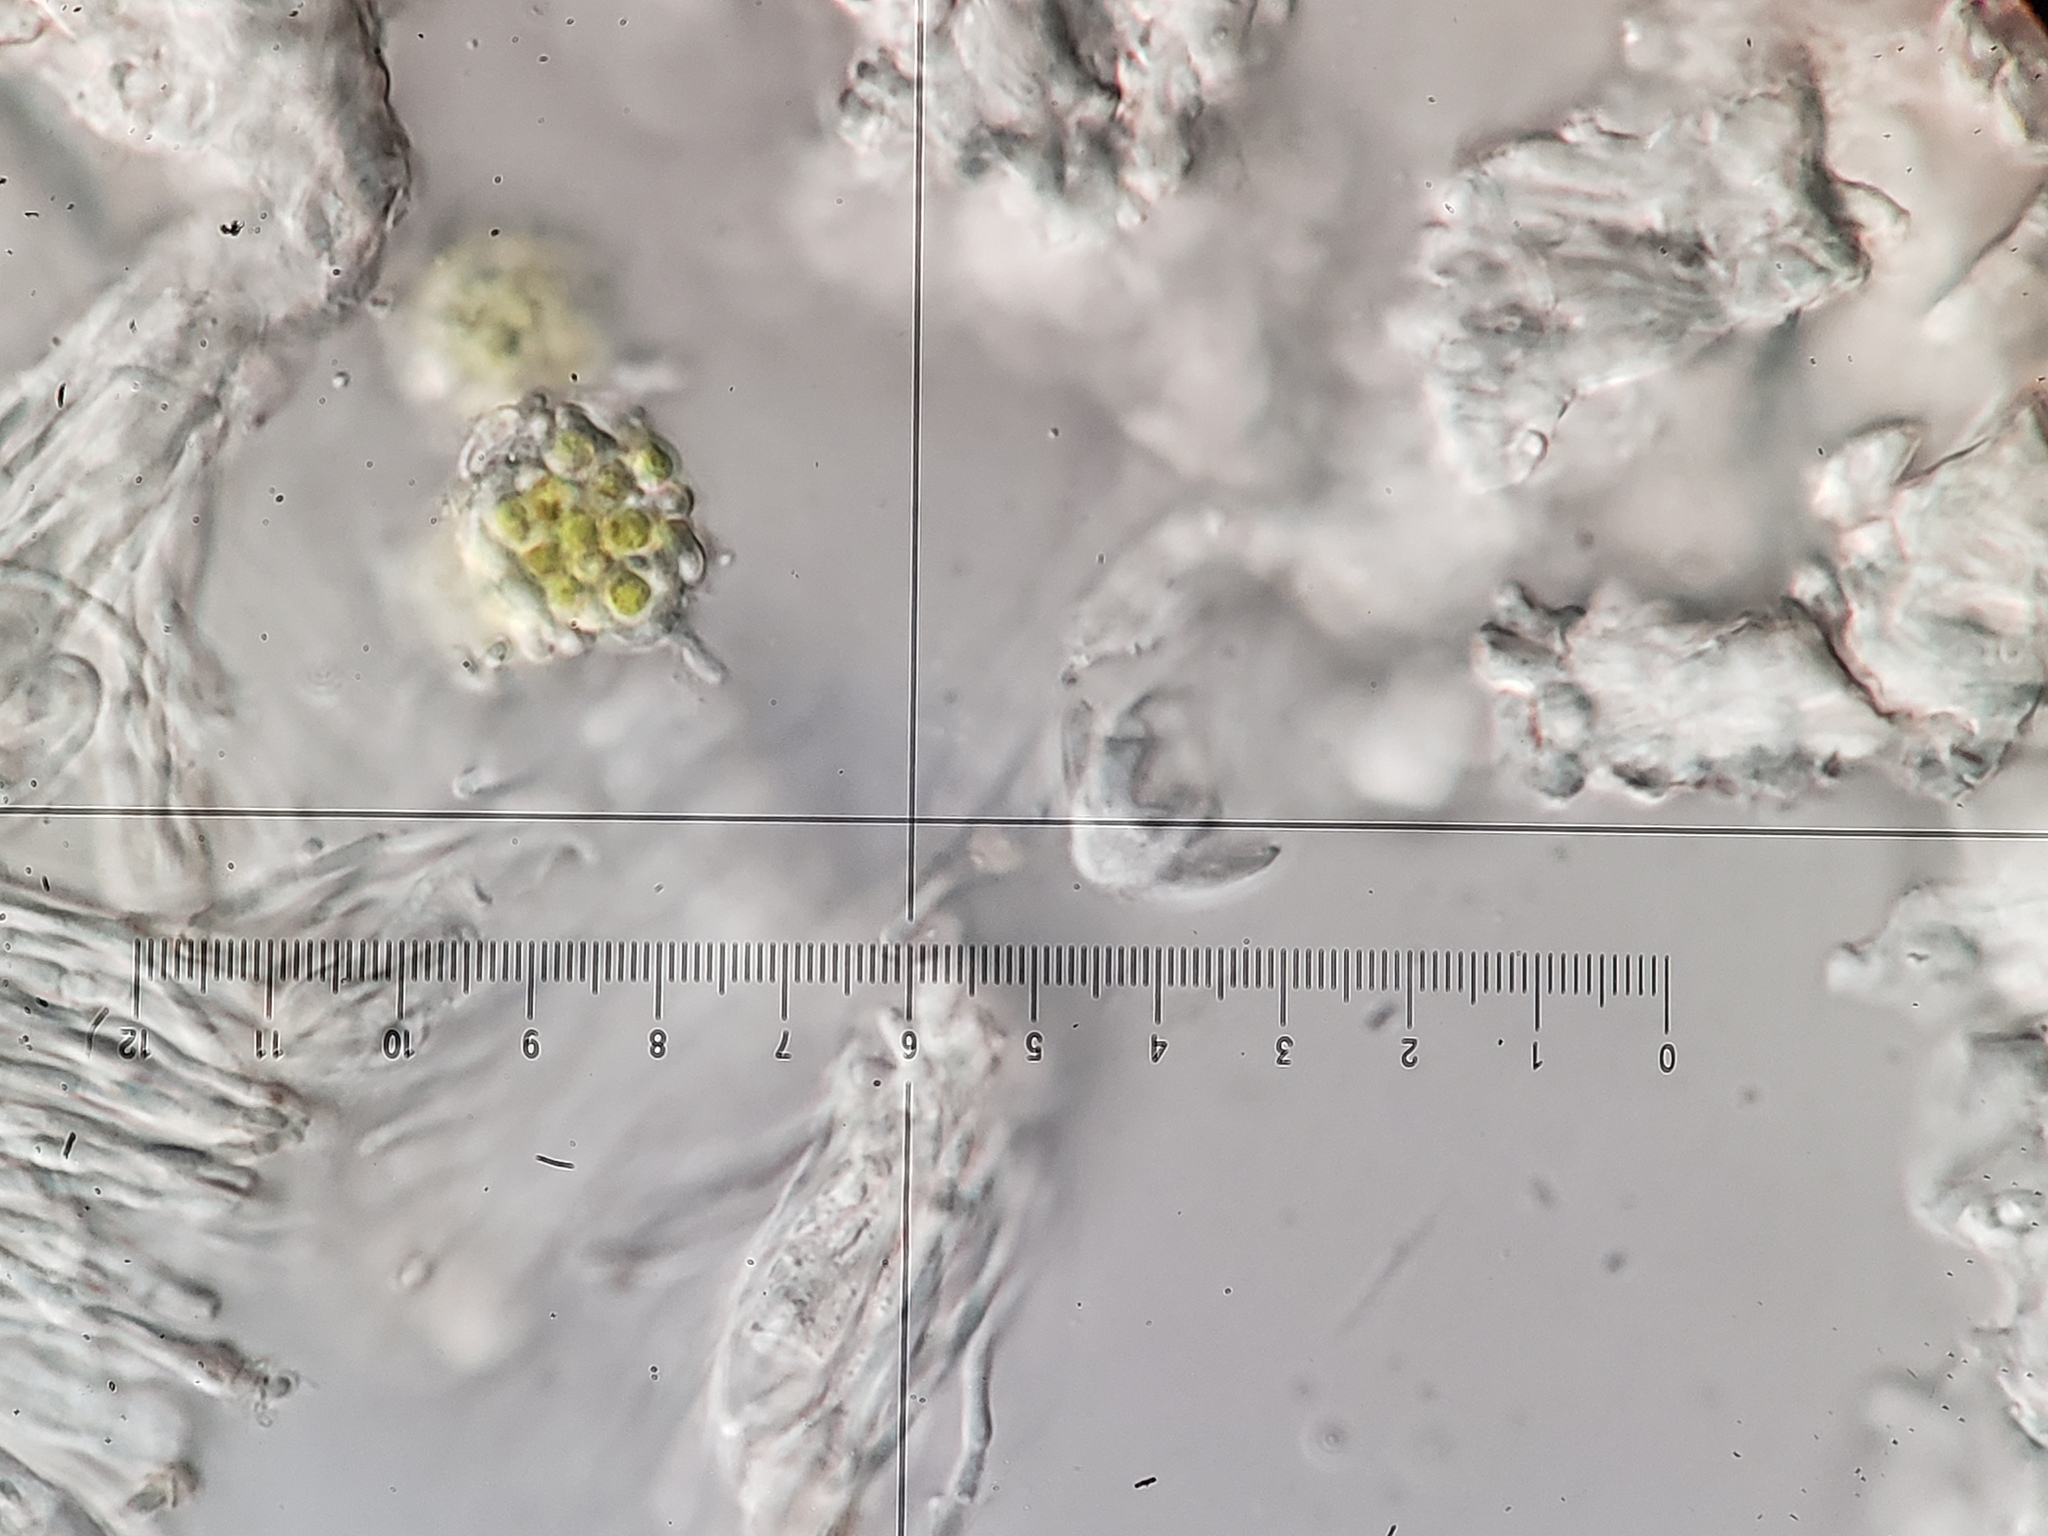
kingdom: Fungi
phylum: Ascomycota
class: Lecanoromycetes
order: Lecanorales
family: Cladoniaceae
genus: Cladonia
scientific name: Cladonia coniocraea
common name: Common powderhorn
